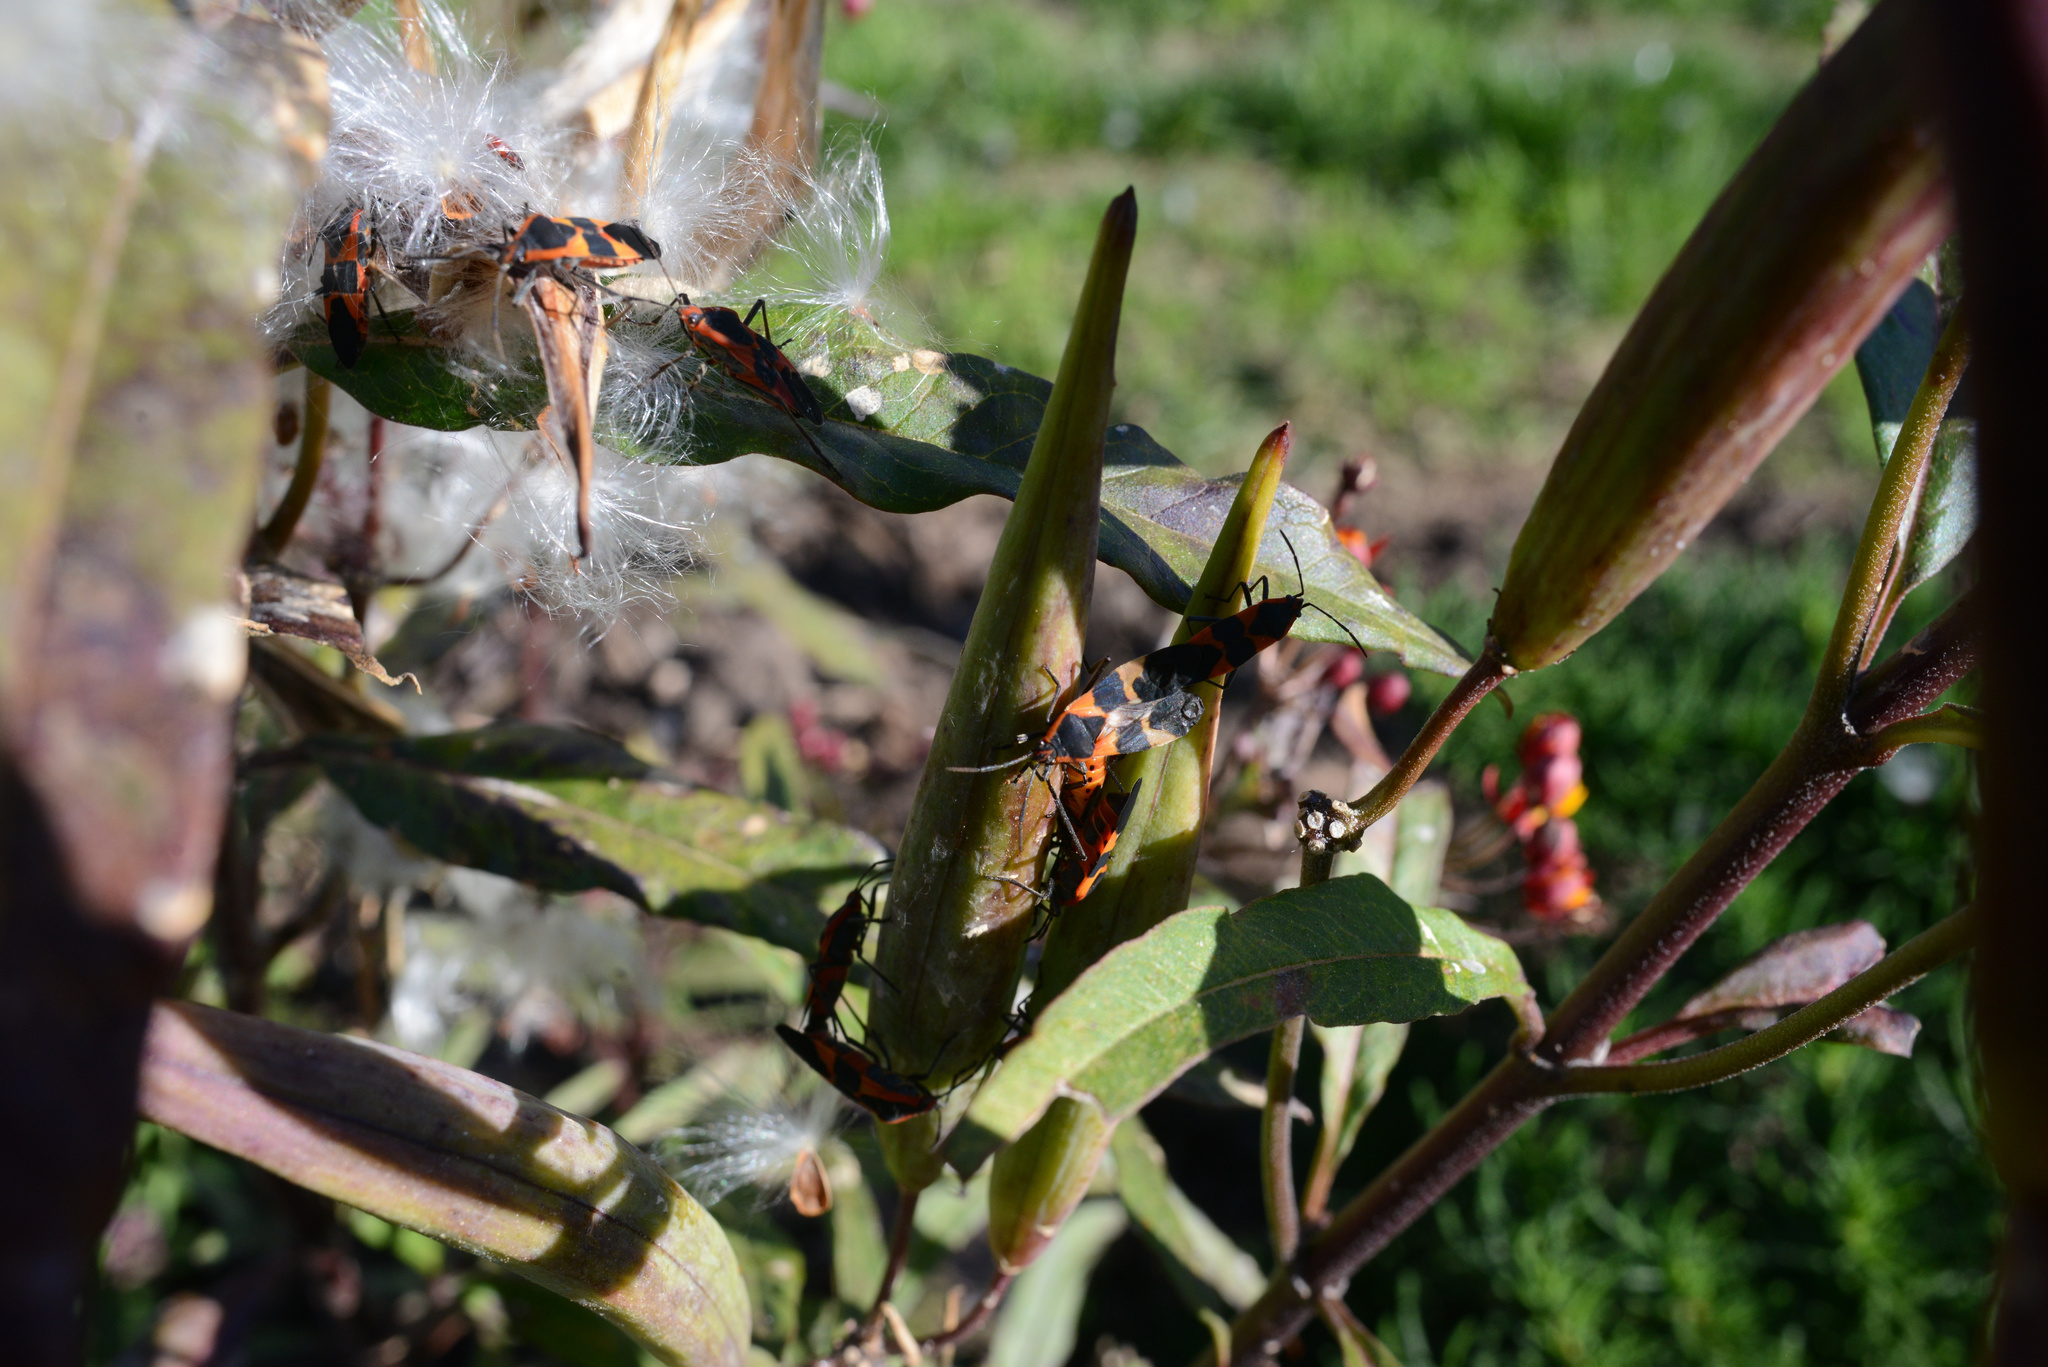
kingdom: Animalia
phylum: Arthropoda
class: Insecta
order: Hemiptera
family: Lygaeidae
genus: Oncopeltus
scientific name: Oncopeltus fasciatus
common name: Large milkweed bug
